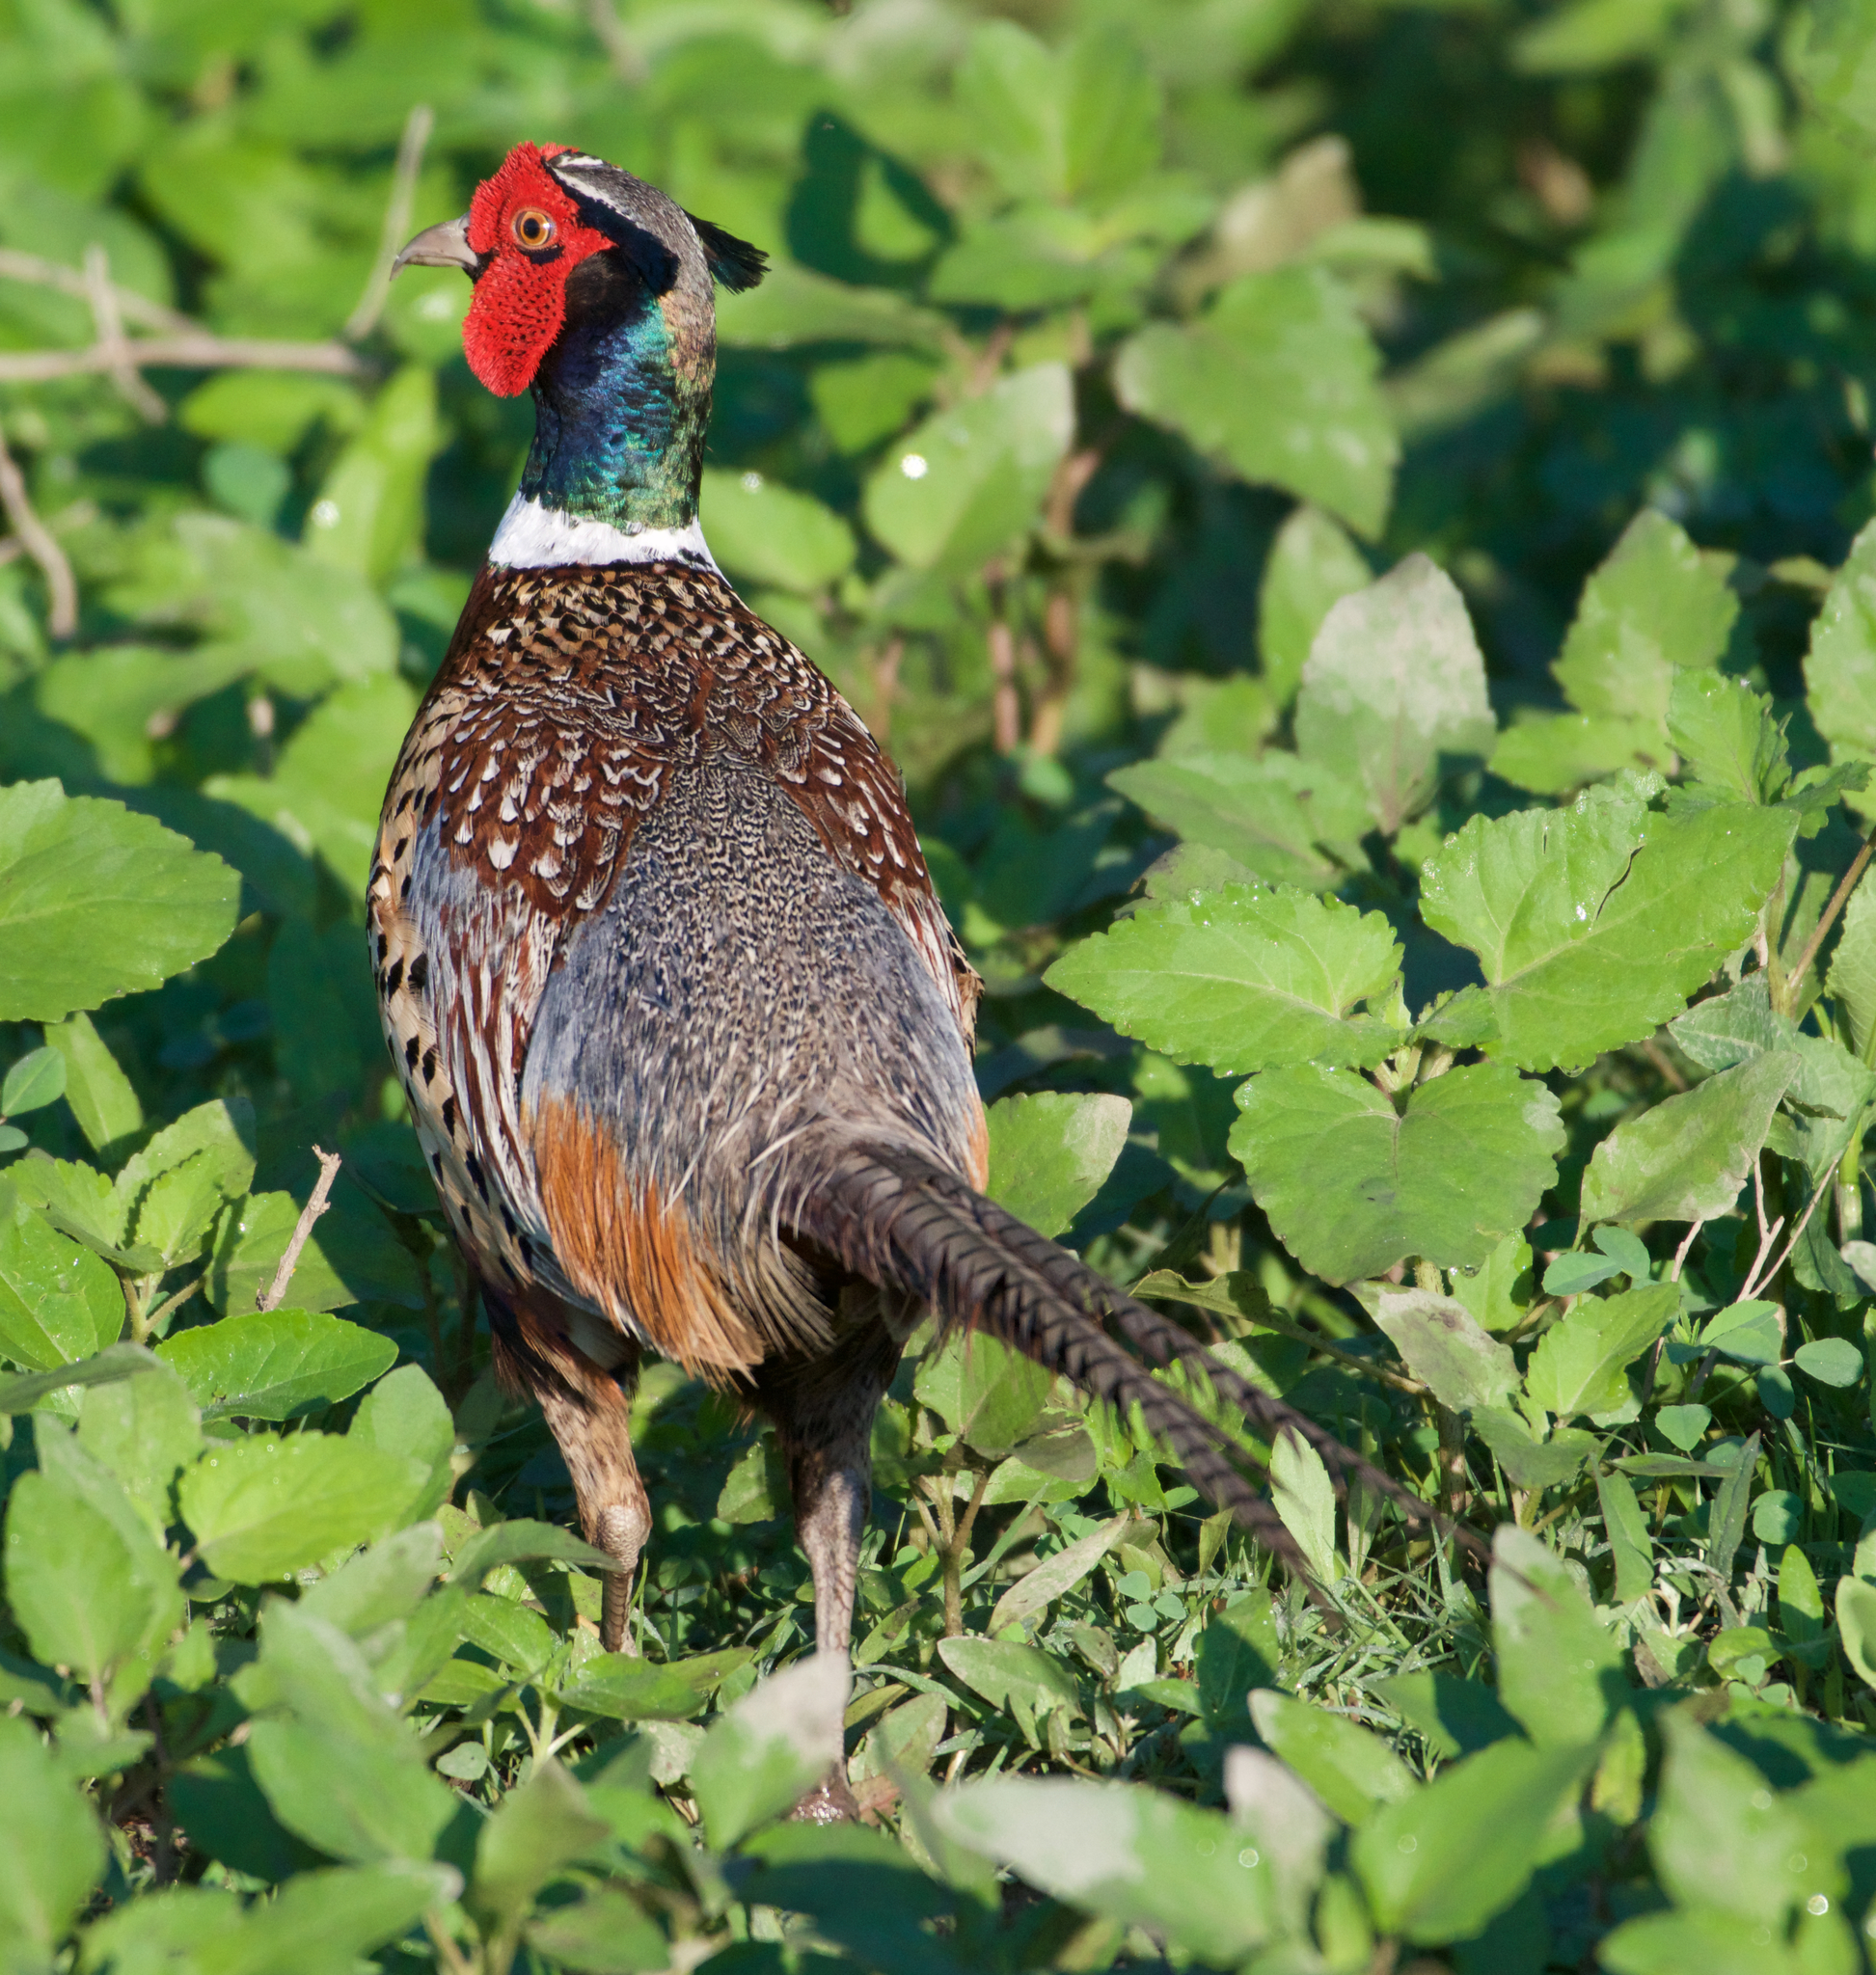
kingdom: Animalia
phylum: Chordata
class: Aves
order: Galliformes
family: Phasianidae
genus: Phasianus
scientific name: Phasianus colchicus
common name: Common pheasant
